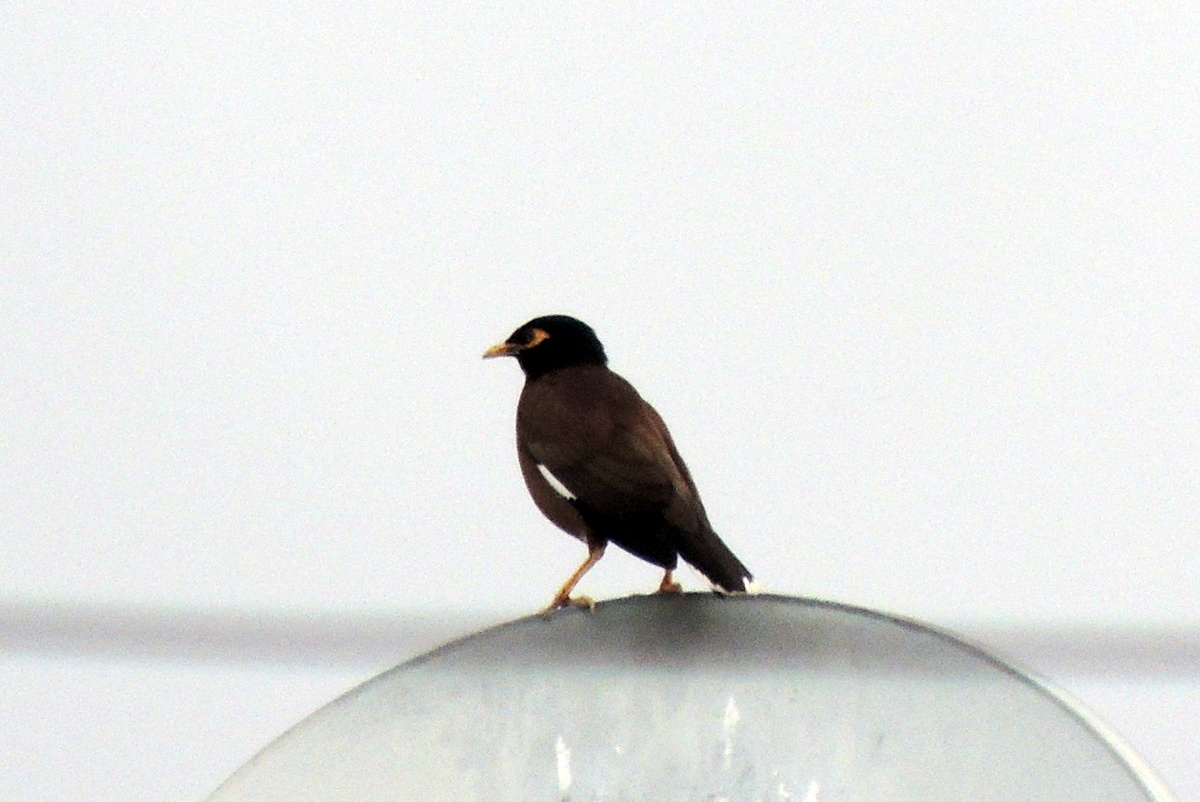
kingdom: Animalia
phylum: Chordata
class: Aves
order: Passeriformes
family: Sturnidae
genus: Acridotheres
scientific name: Acridotheres tristis
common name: Common myna
